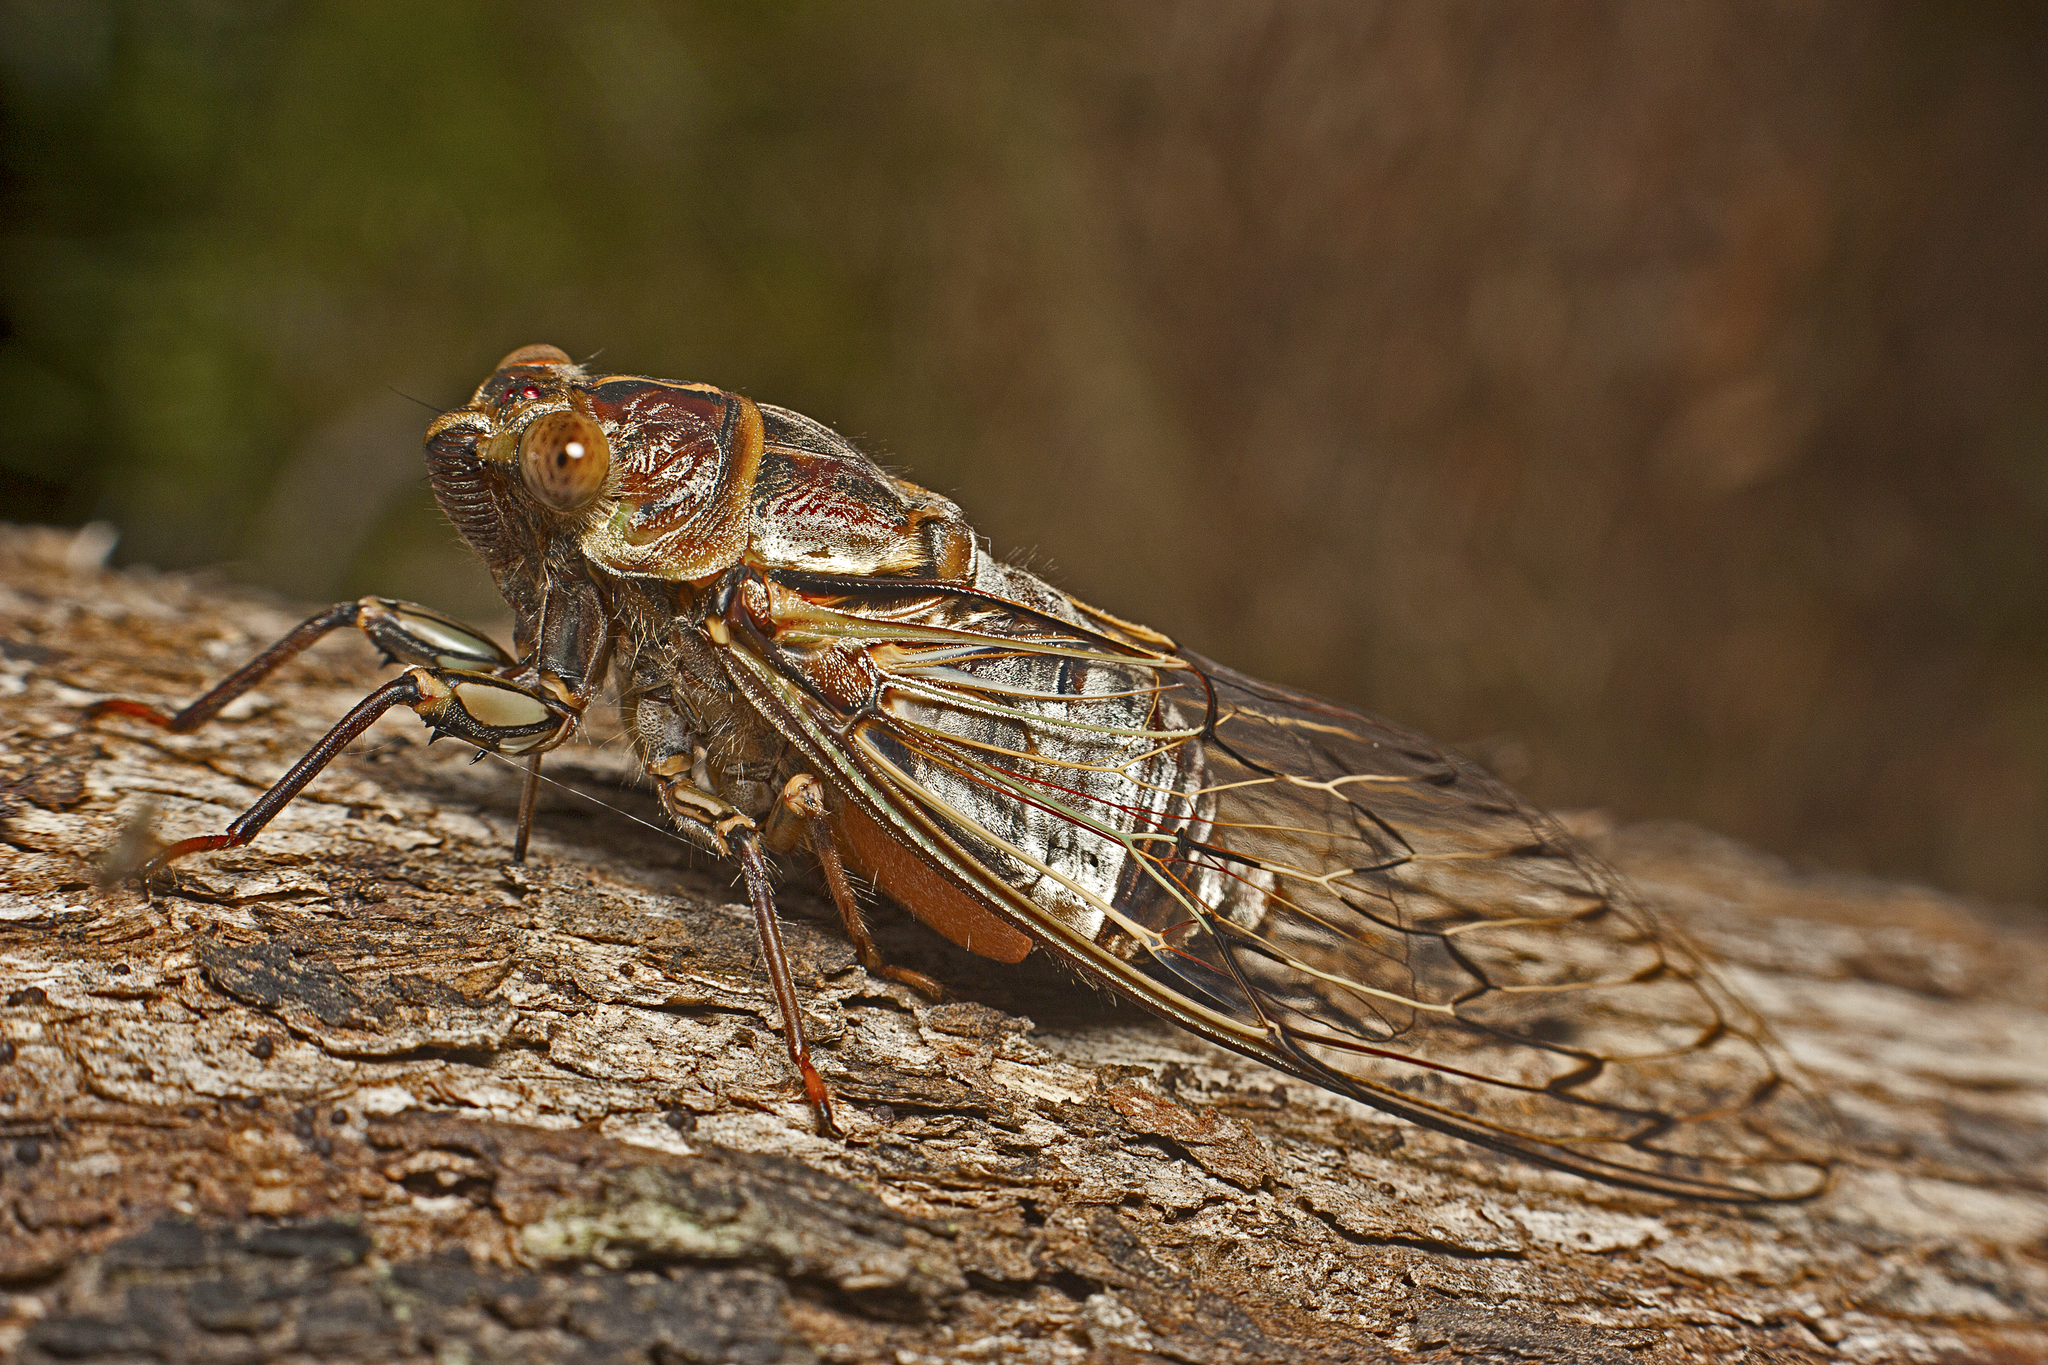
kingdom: Animalia
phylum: Arthropoda
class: Insecta
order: Hemiptera
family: Cicadidae
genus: Henicopsaltria
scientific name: Henicopsaltria eydouxii
